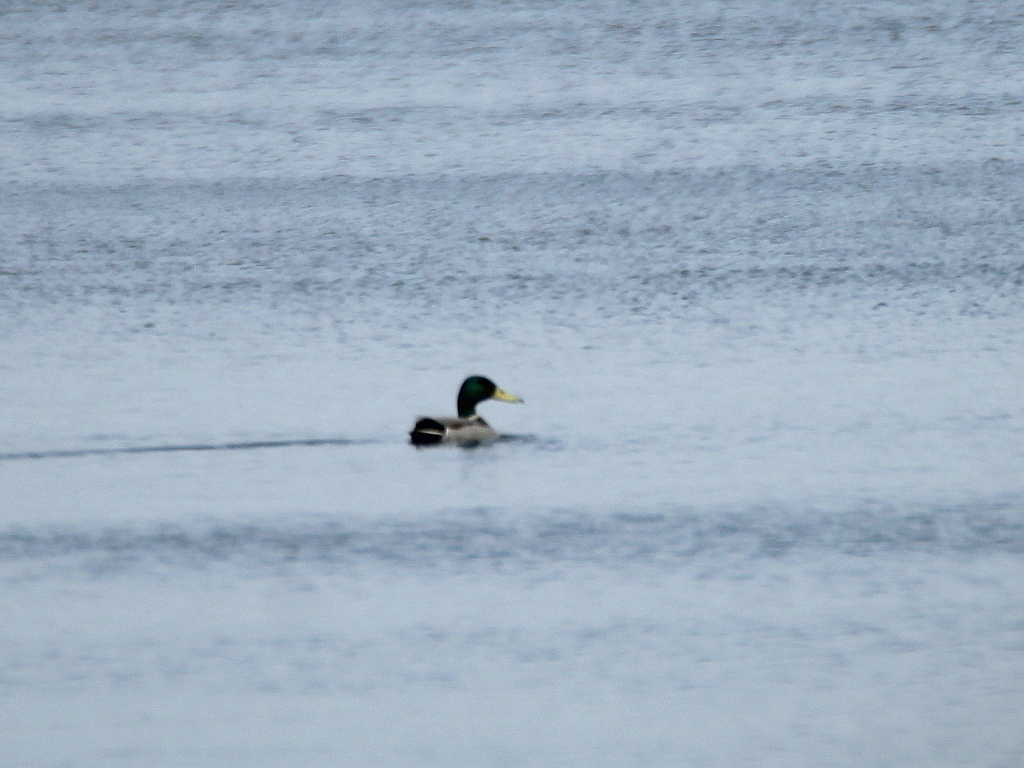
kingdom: Animalia
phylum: Chordata
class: Aves
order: Anseriformes
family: Anatidae
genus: Anas
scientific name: Anas platyrhynchos
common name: Mallard
